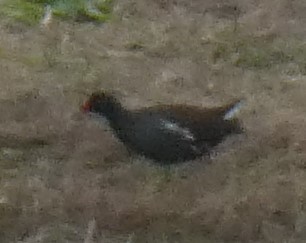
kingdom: Animalia
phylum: Chordata
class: Aves
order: Gruiformes
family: Rallidae
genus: Gallinula
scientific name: Gallinula chloropus
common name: Common moorhen
